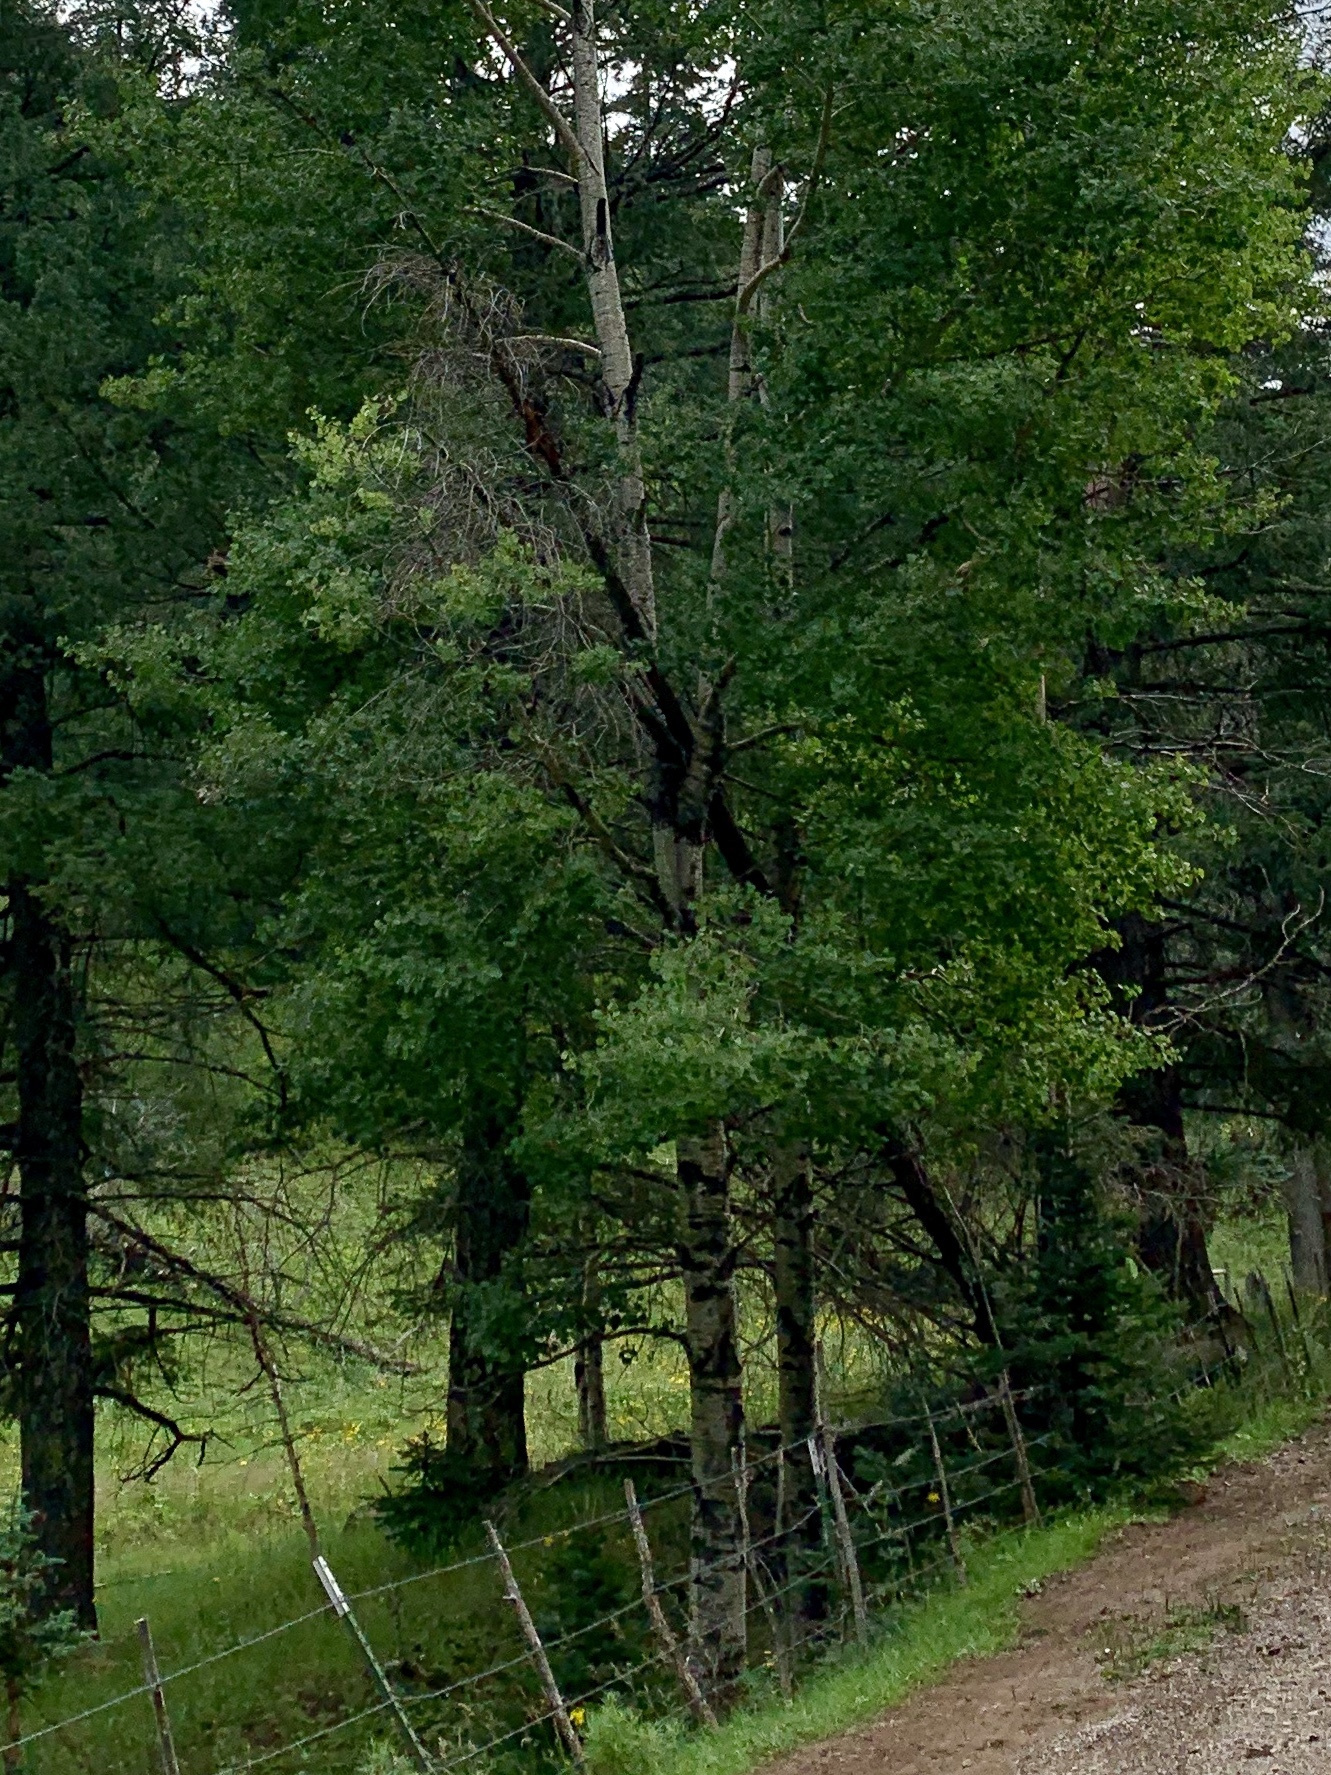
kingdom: Plantae
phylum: Tracheophyta
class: Magnoliopsida
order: Malpighiales
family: Salicaceae
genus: Populus
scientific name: Populus tremuloides
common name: Quaking aspen
